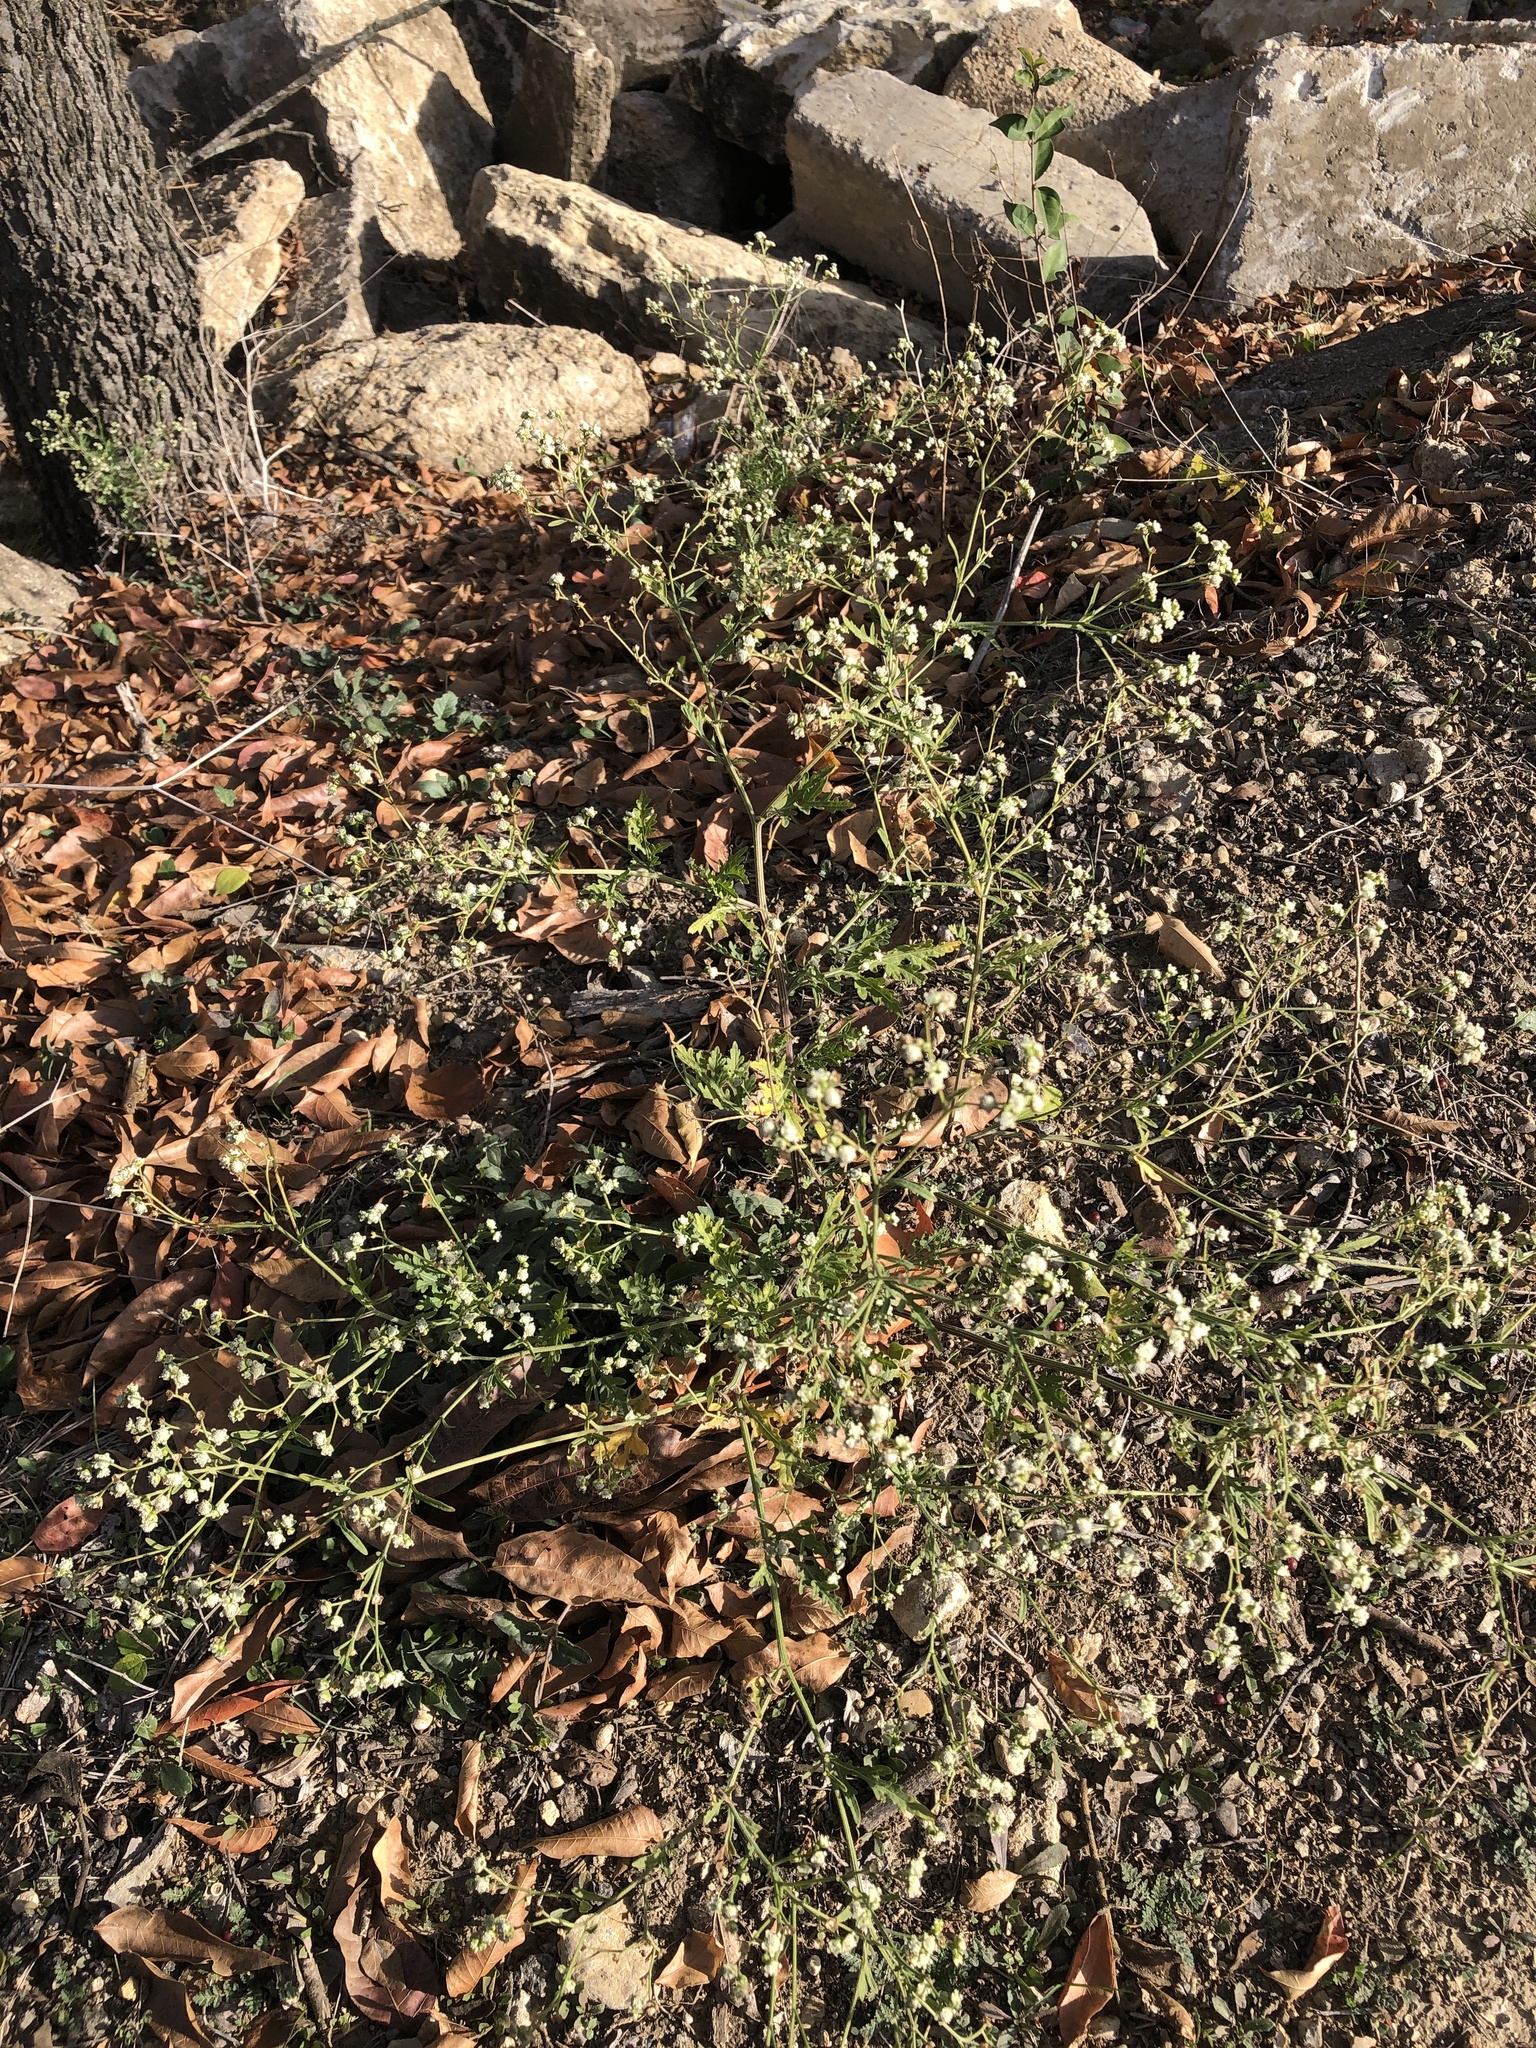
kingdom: Plantae
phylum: Tracheophyta
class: Magnoliopsida
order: Asterales
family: Asteraceae
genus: Parthenium
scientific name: Parthenium hysterophorus
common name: Santa maria feverfew
